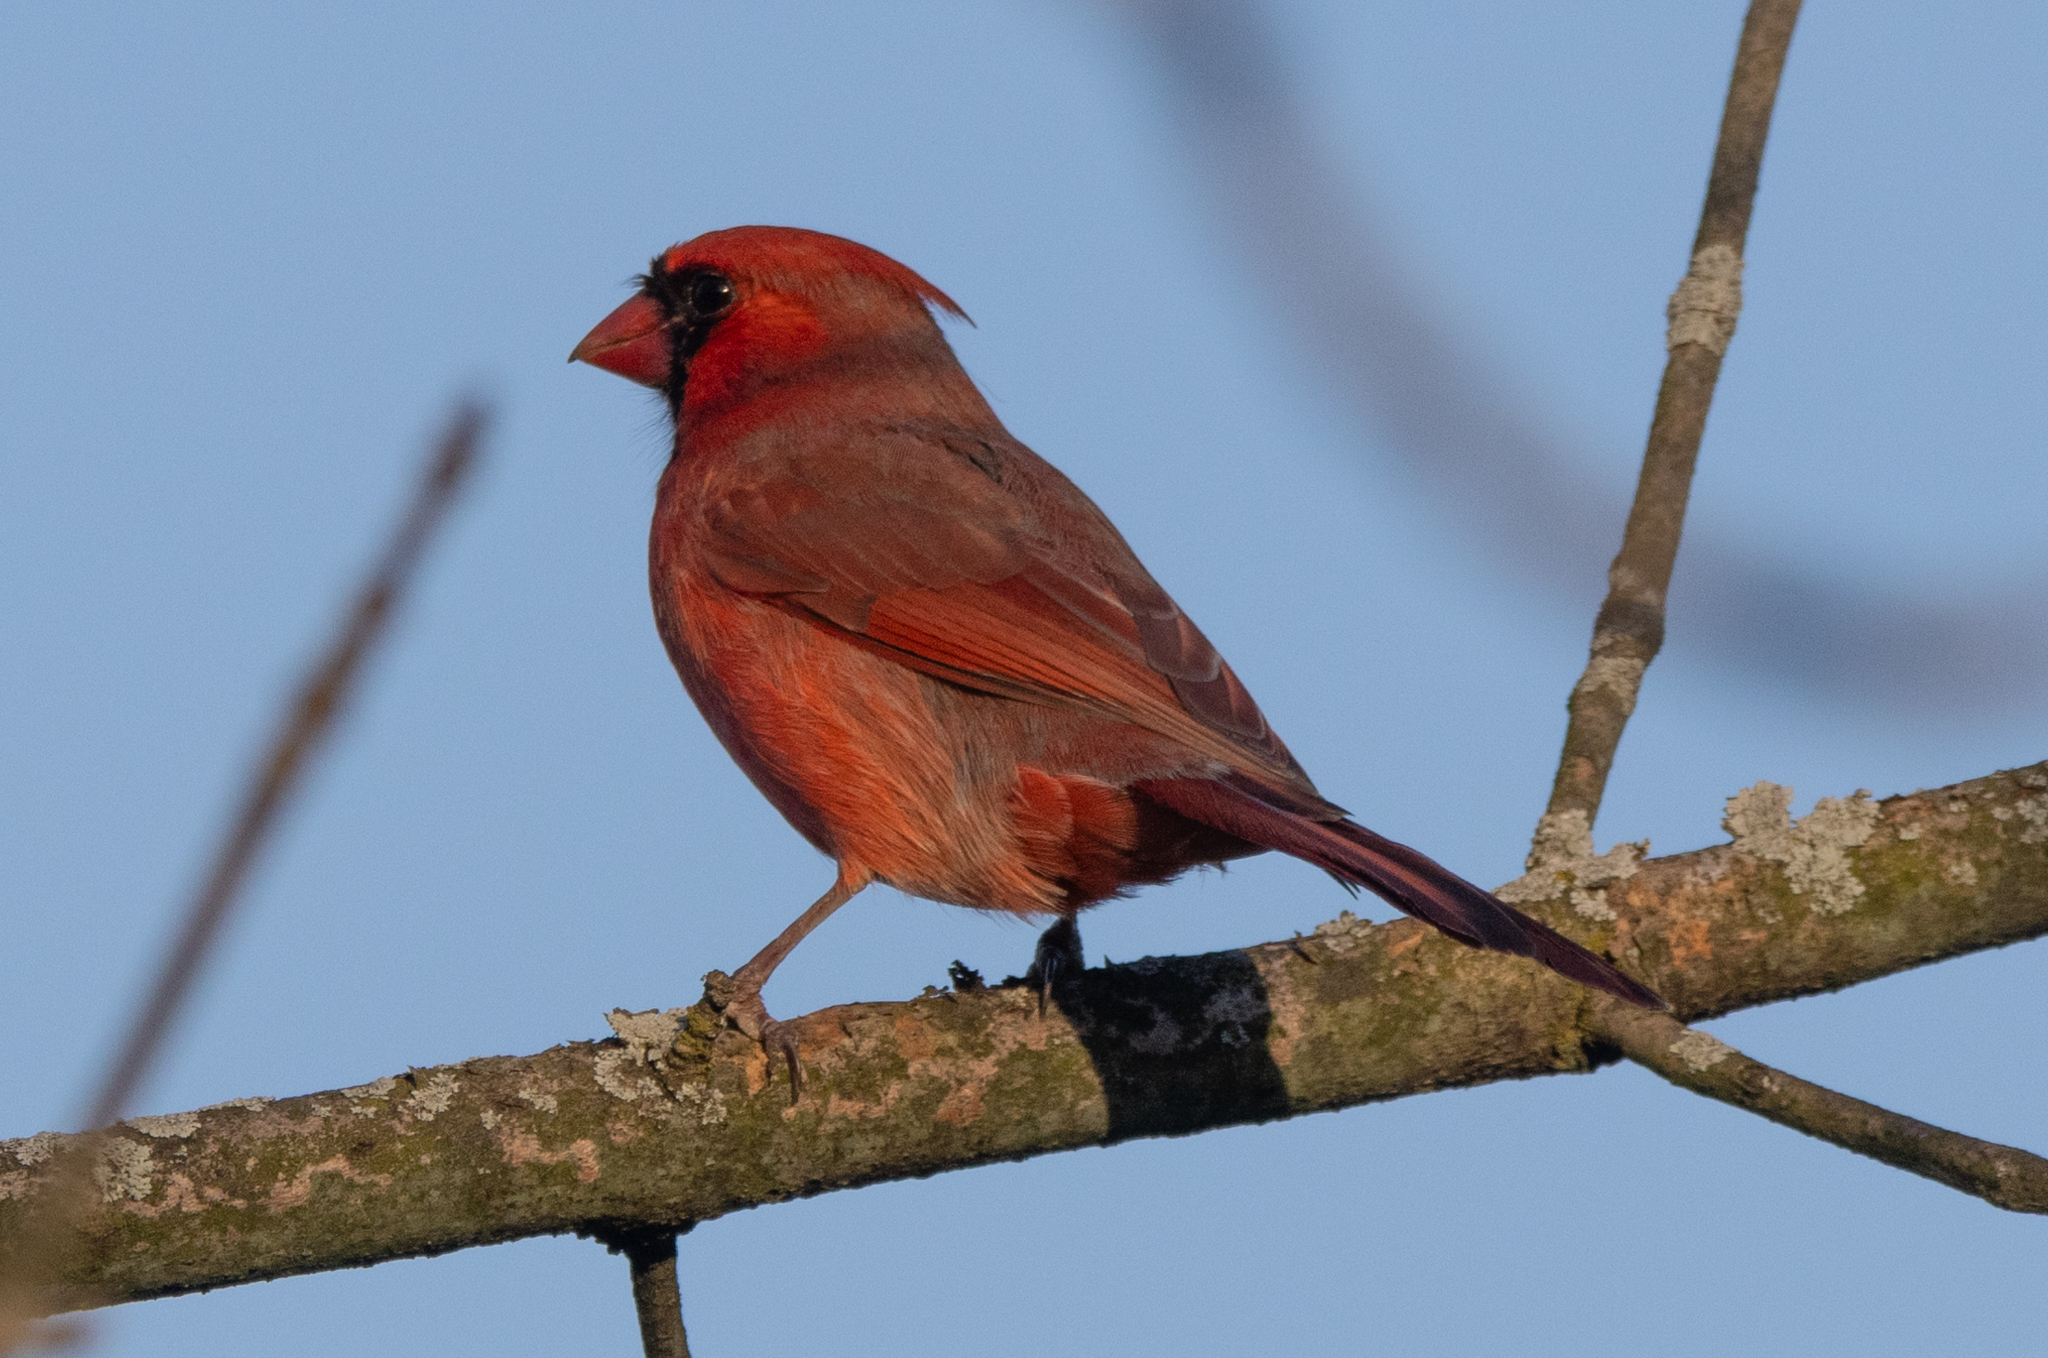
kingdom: Animalia
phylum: Chordata
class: Aves
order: Passeriformes
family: Cardinalidae
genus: Cardinalis
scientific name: Cardinalis cardinalis
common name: Northern cardinal
